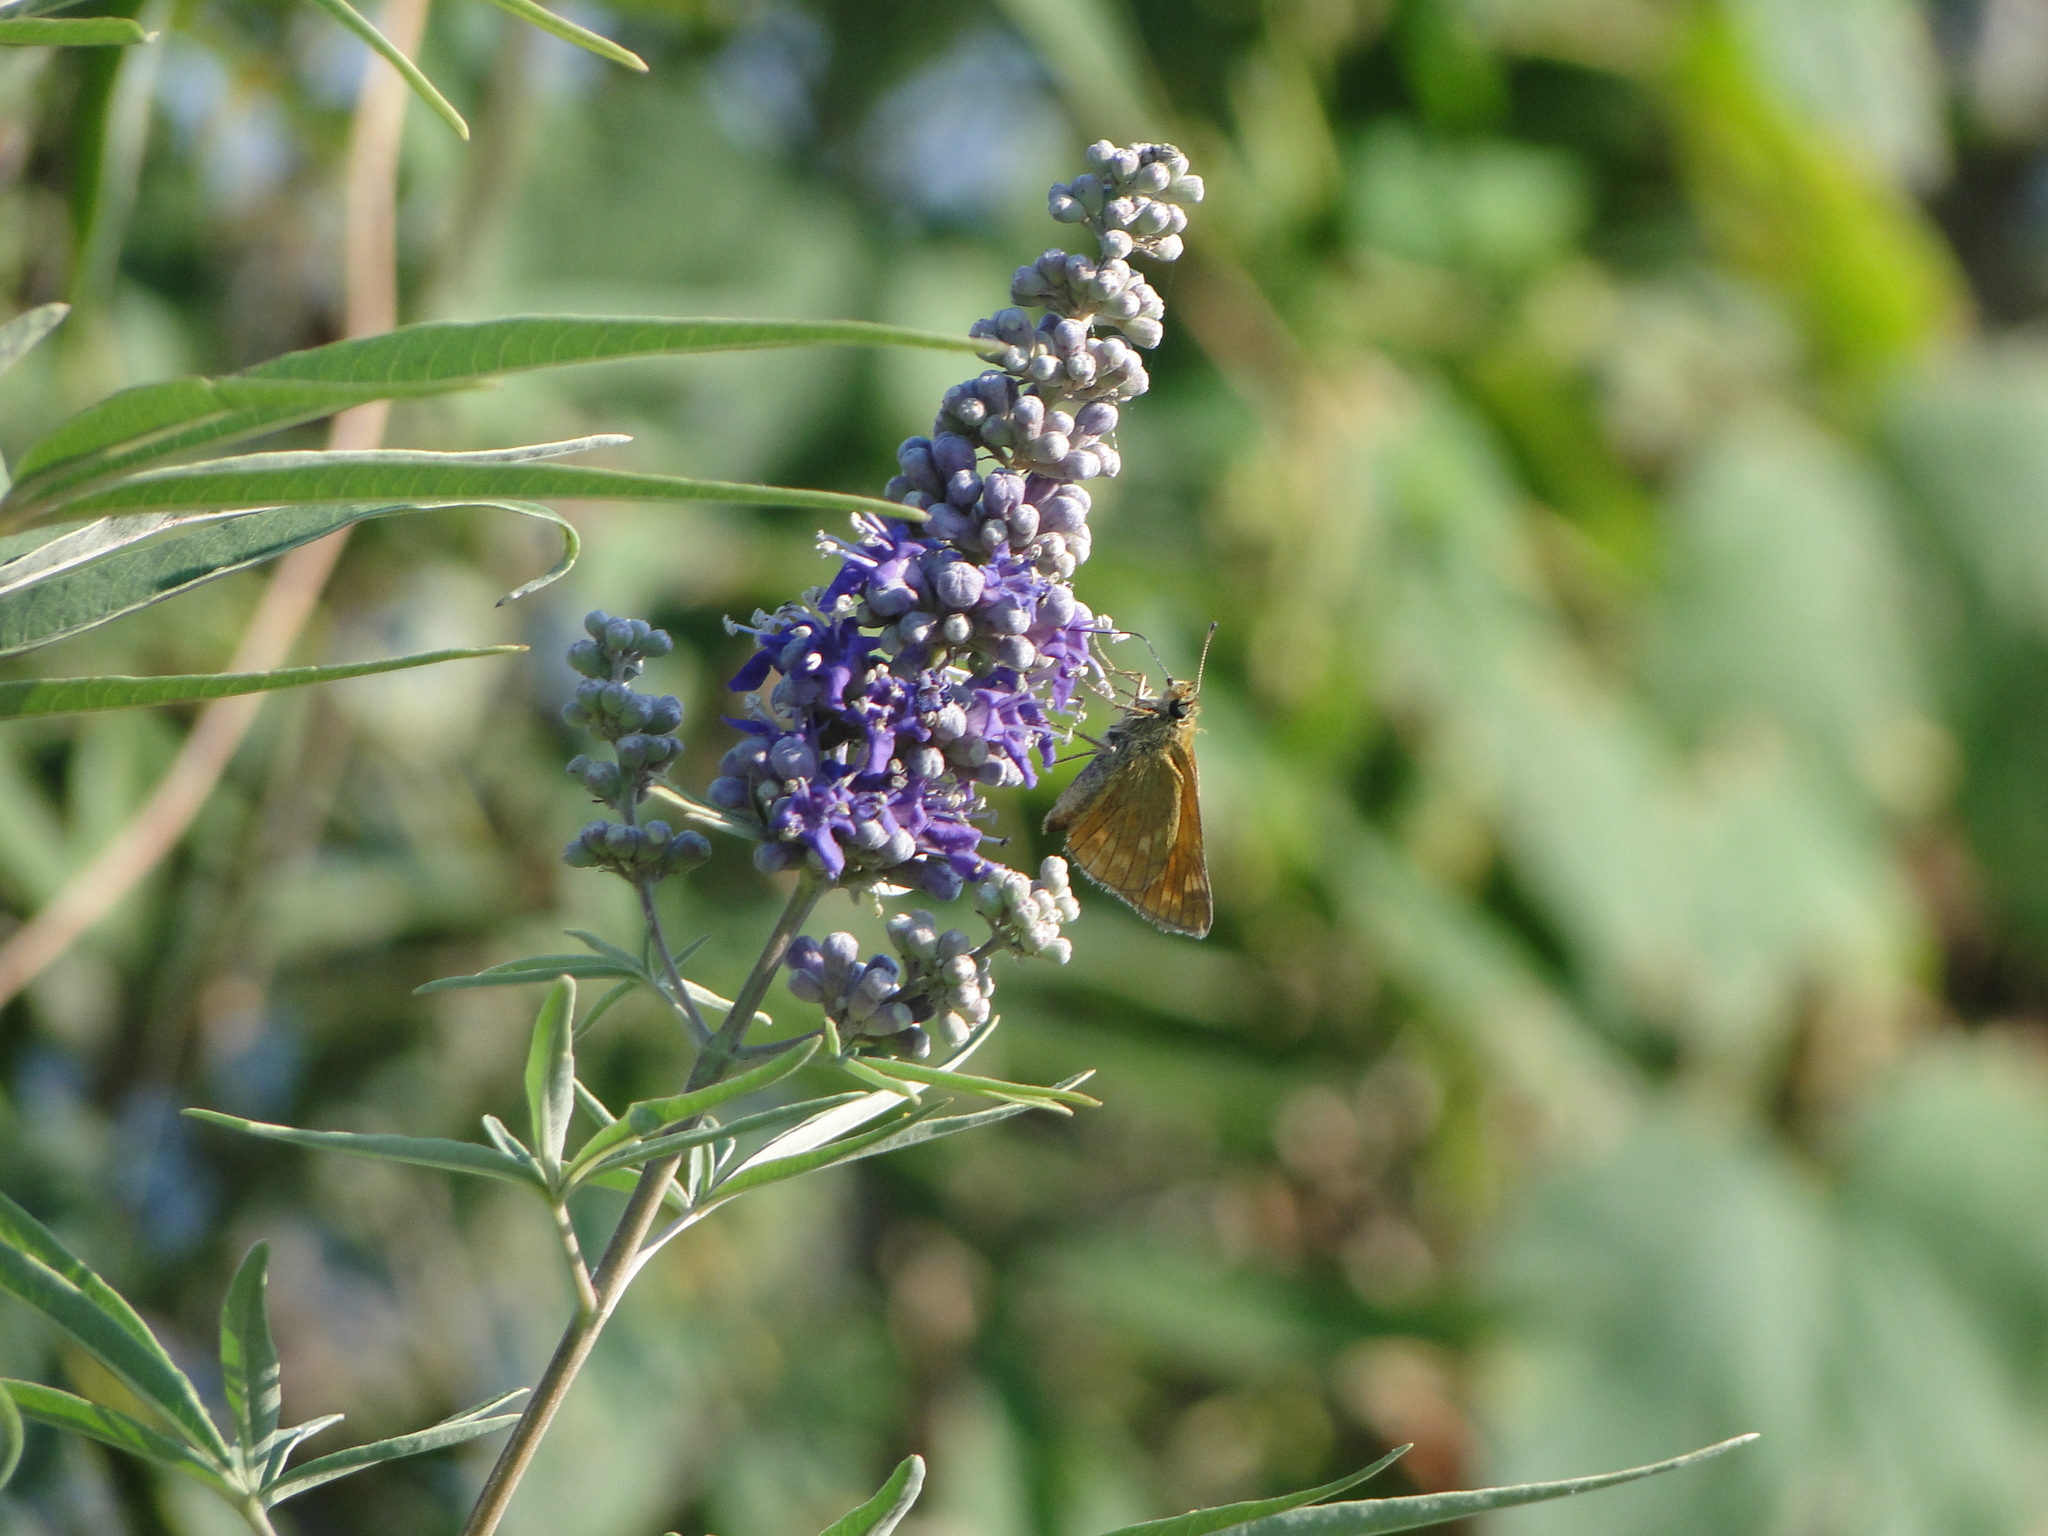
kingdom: Animalia
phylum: Arthropoda
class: Insecta
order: Lepidoptera
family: Hesperiidae
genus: Ochlodes
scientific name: Ochlodes venata
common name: Large skipper
